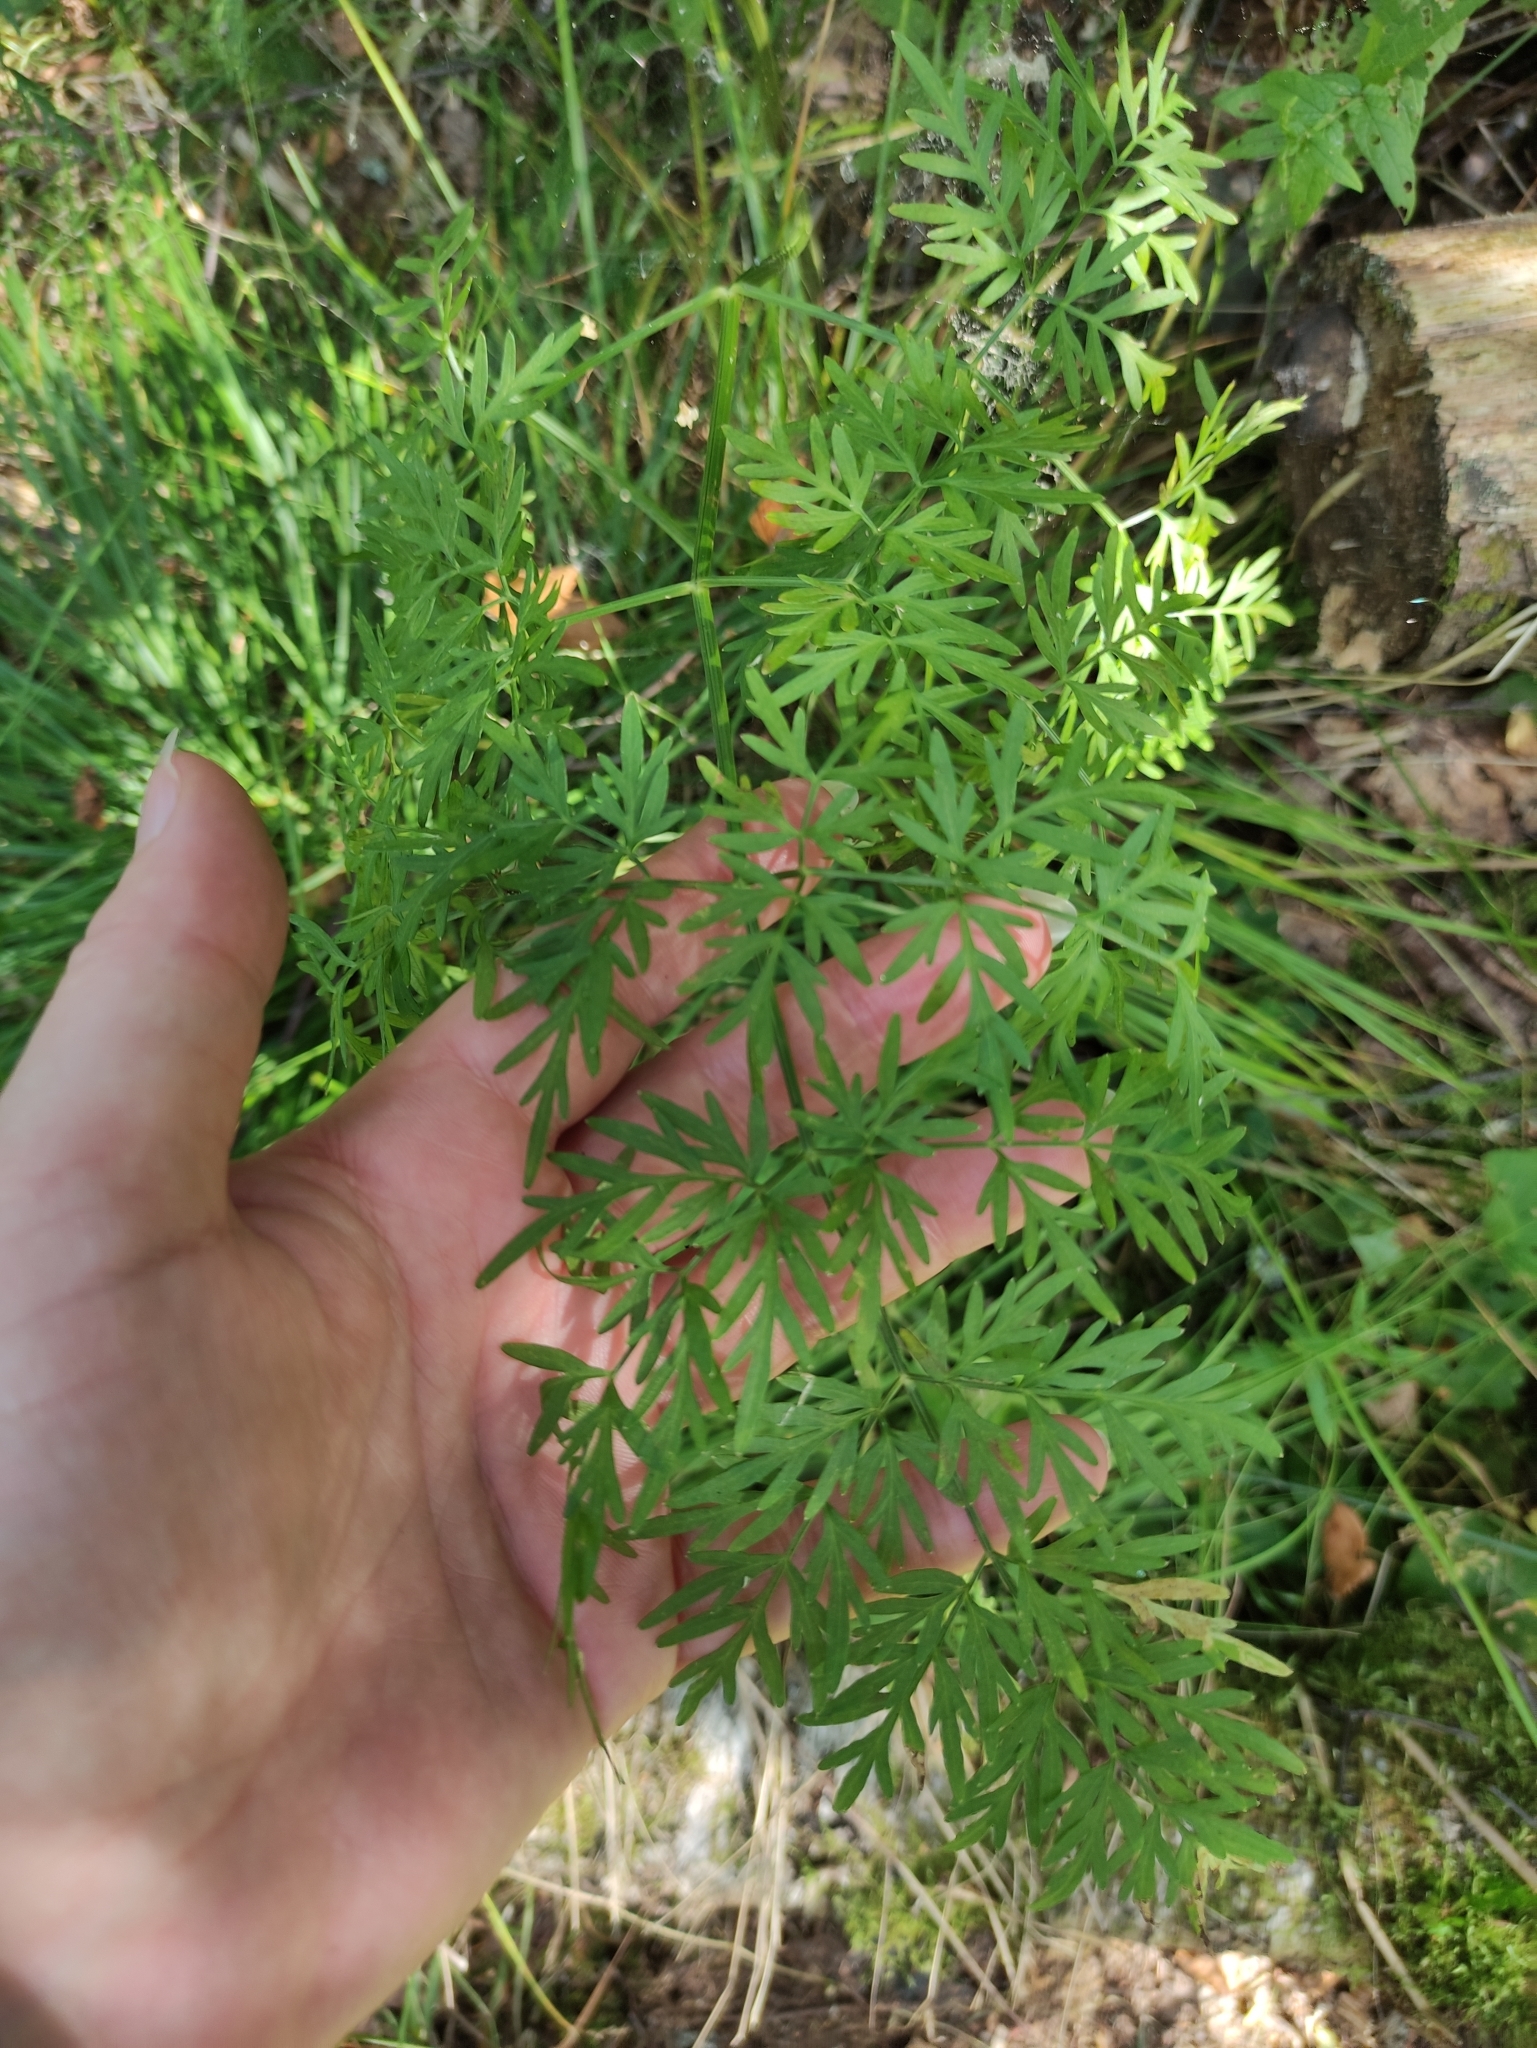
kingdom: Plantae
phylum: Tracheophyta
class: Magnoliopsida
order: Apiales
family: Apiaceae
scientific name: Apiaceae
